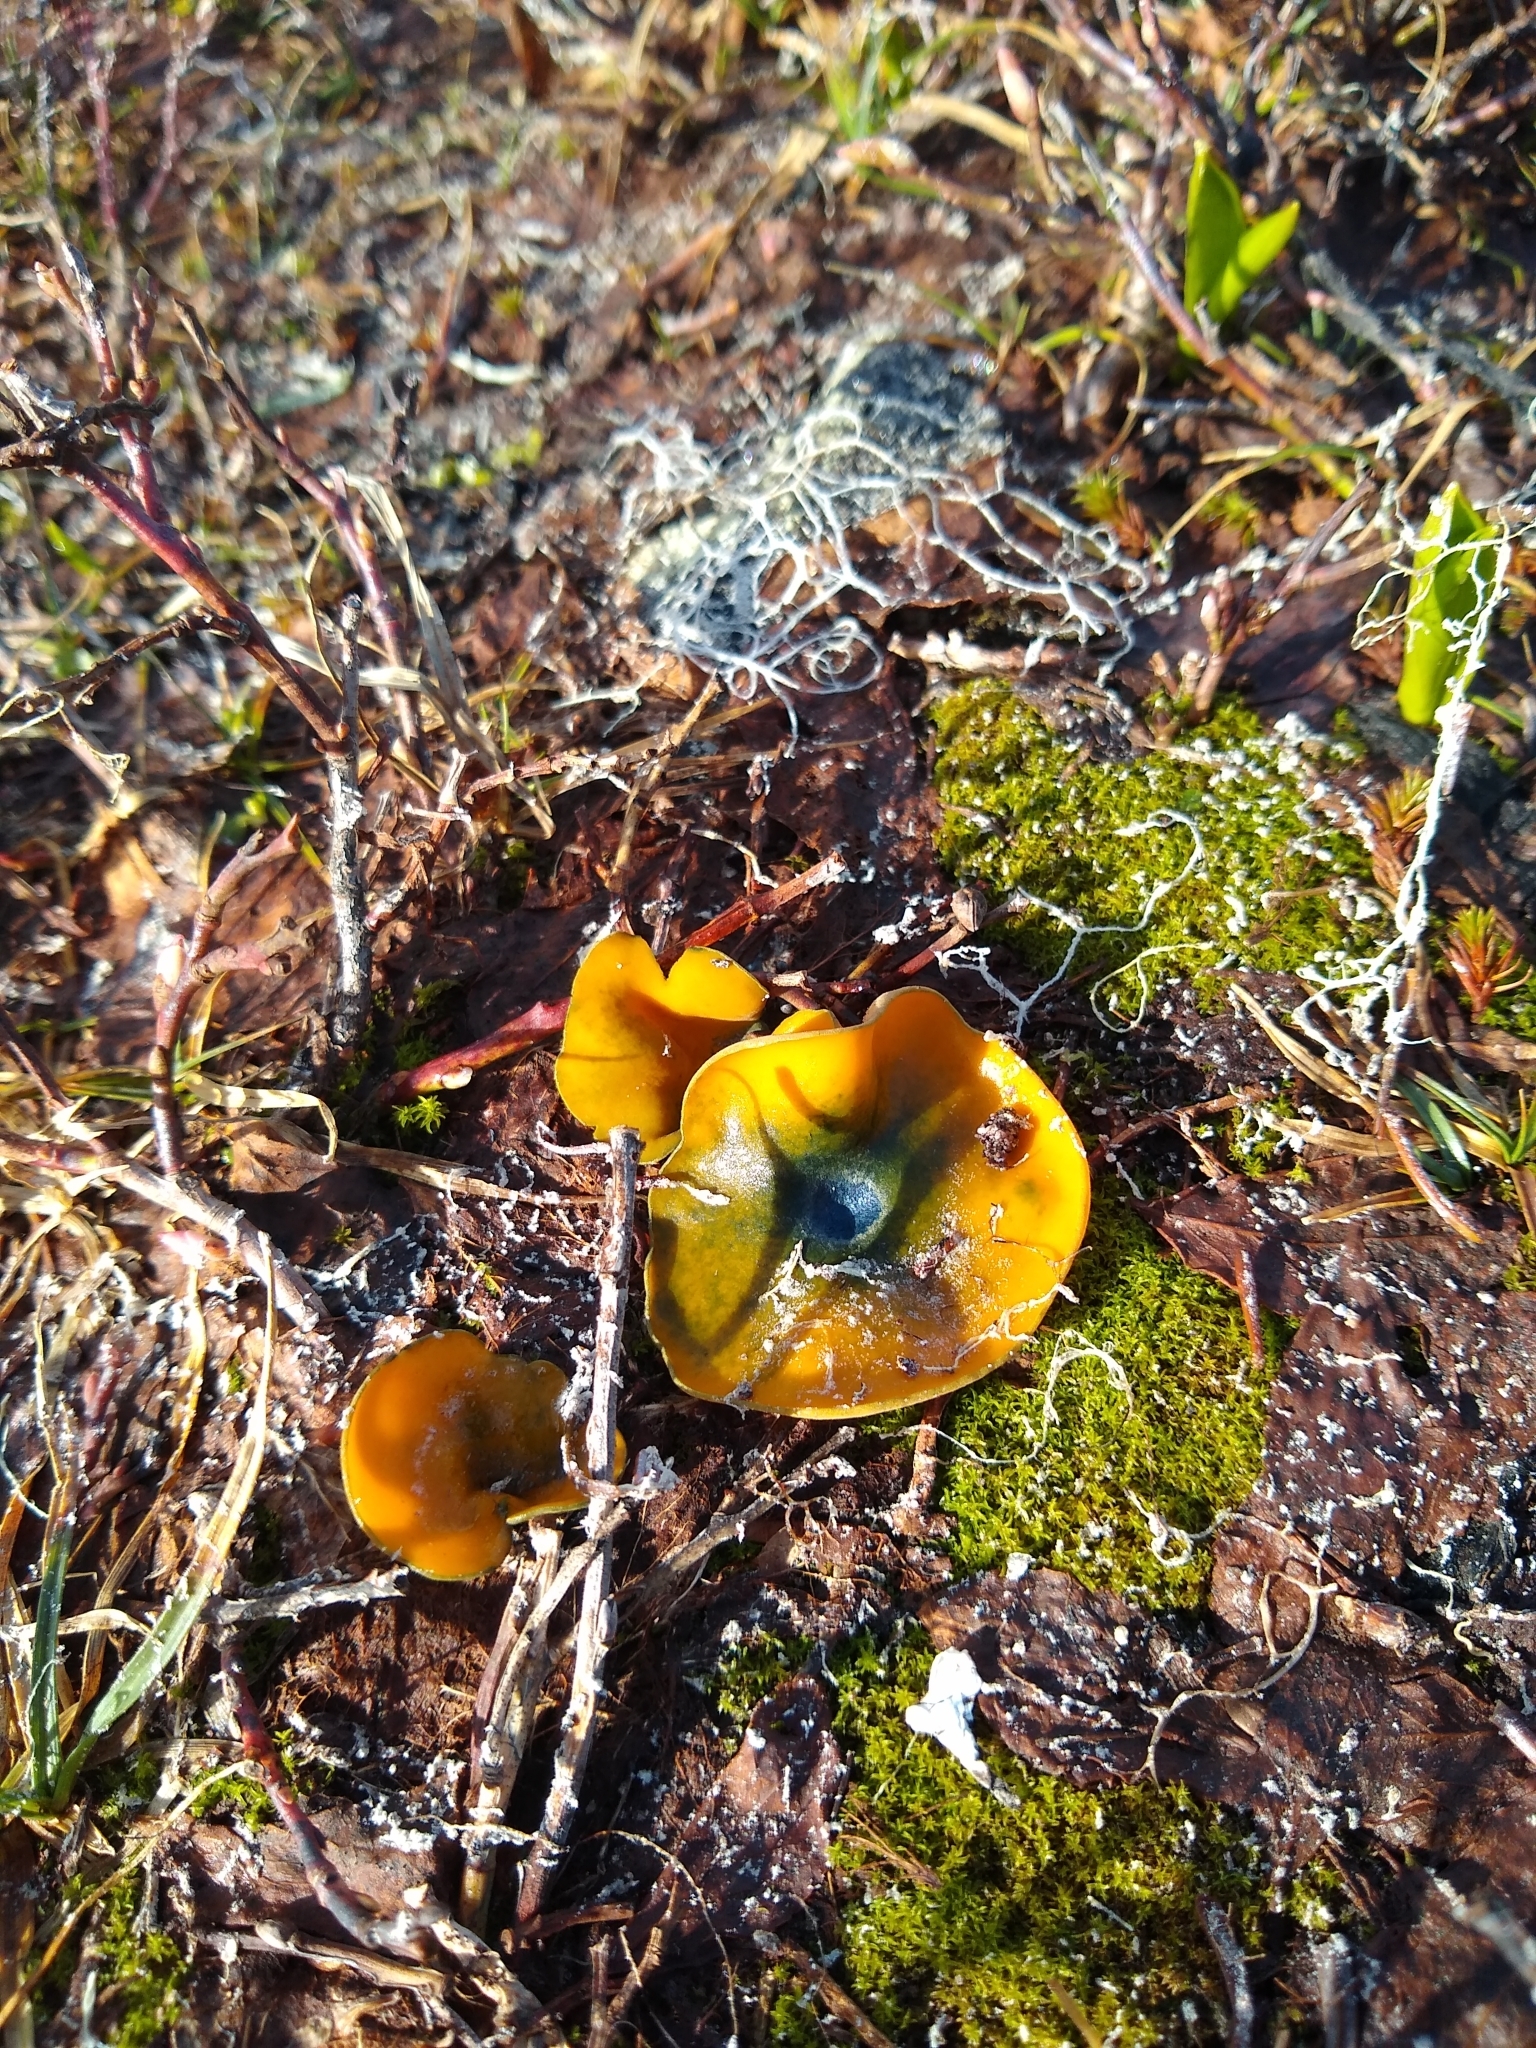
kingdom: Fungi
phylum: Ascomycota
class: Pezizomycetes
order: Pezizales
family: Caloscyphaceae
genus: Caloscypha
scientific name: Caloscypha fulgens
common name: Golden cup
